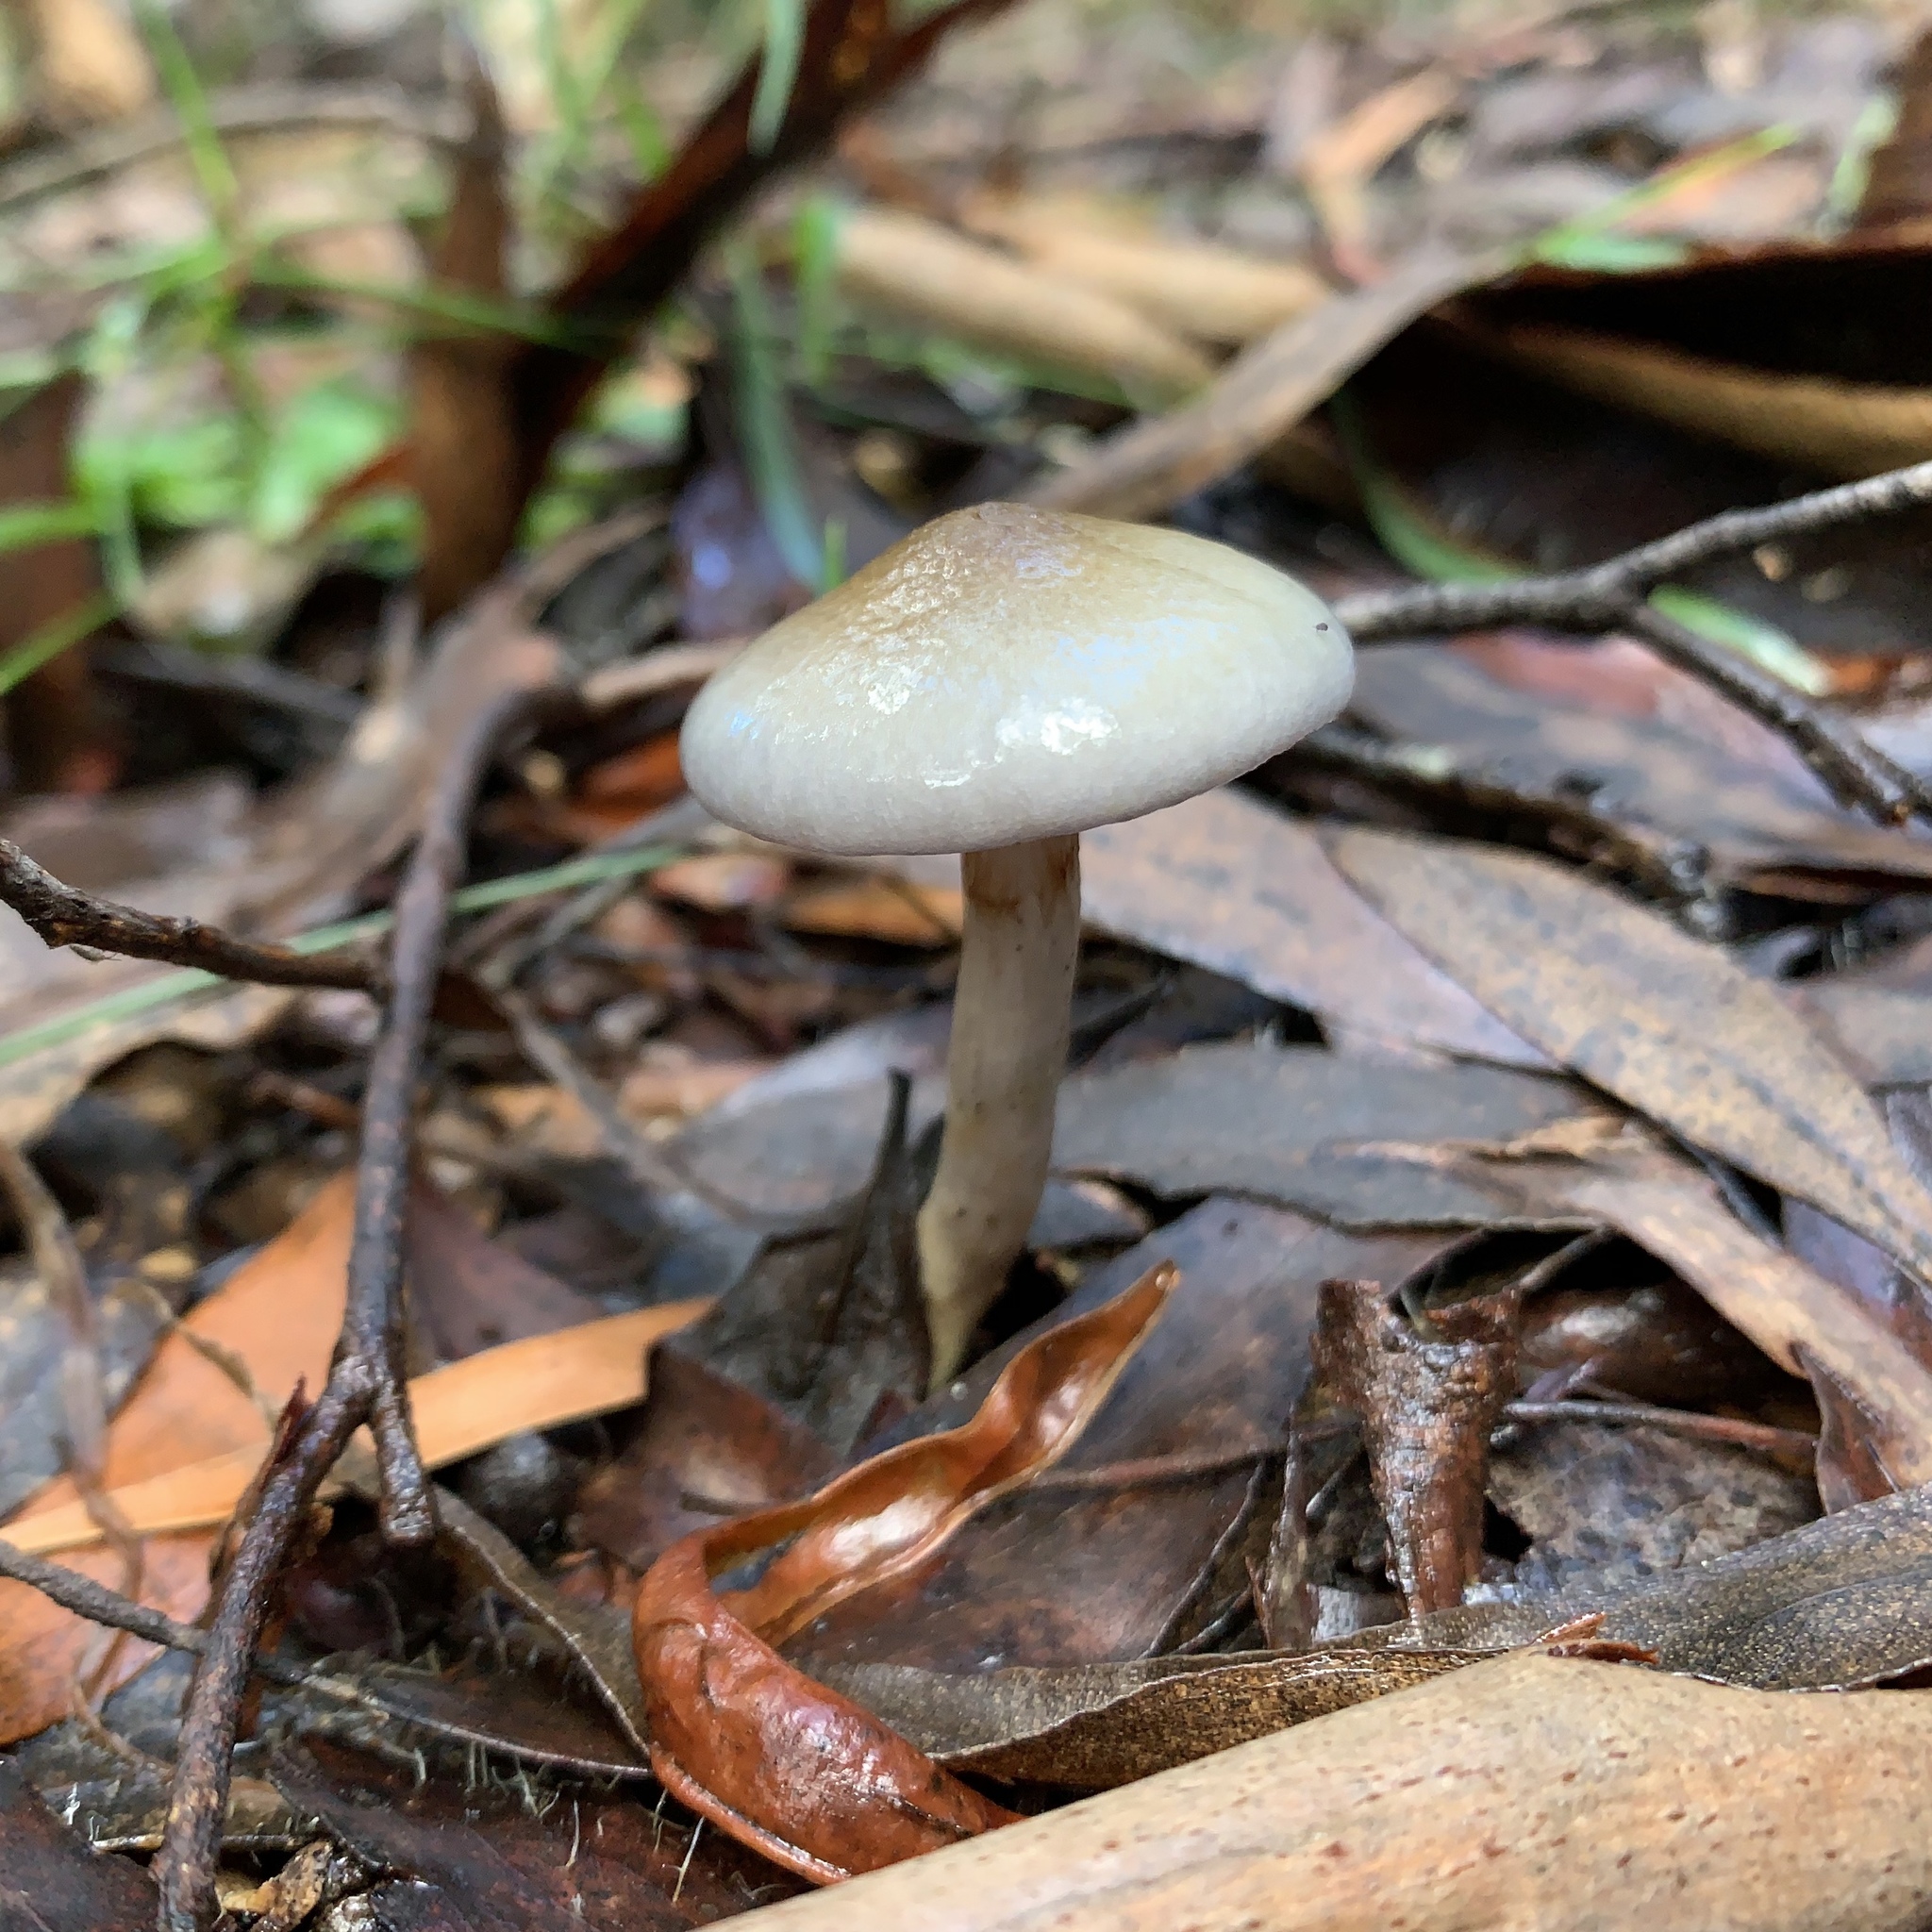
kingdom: Fungi
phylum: Basidiomycota
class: Agaricomycetes
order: Agaricales
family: Cortinariaceae
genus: Cortinarius
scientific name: Cortinarius rotundisporus
